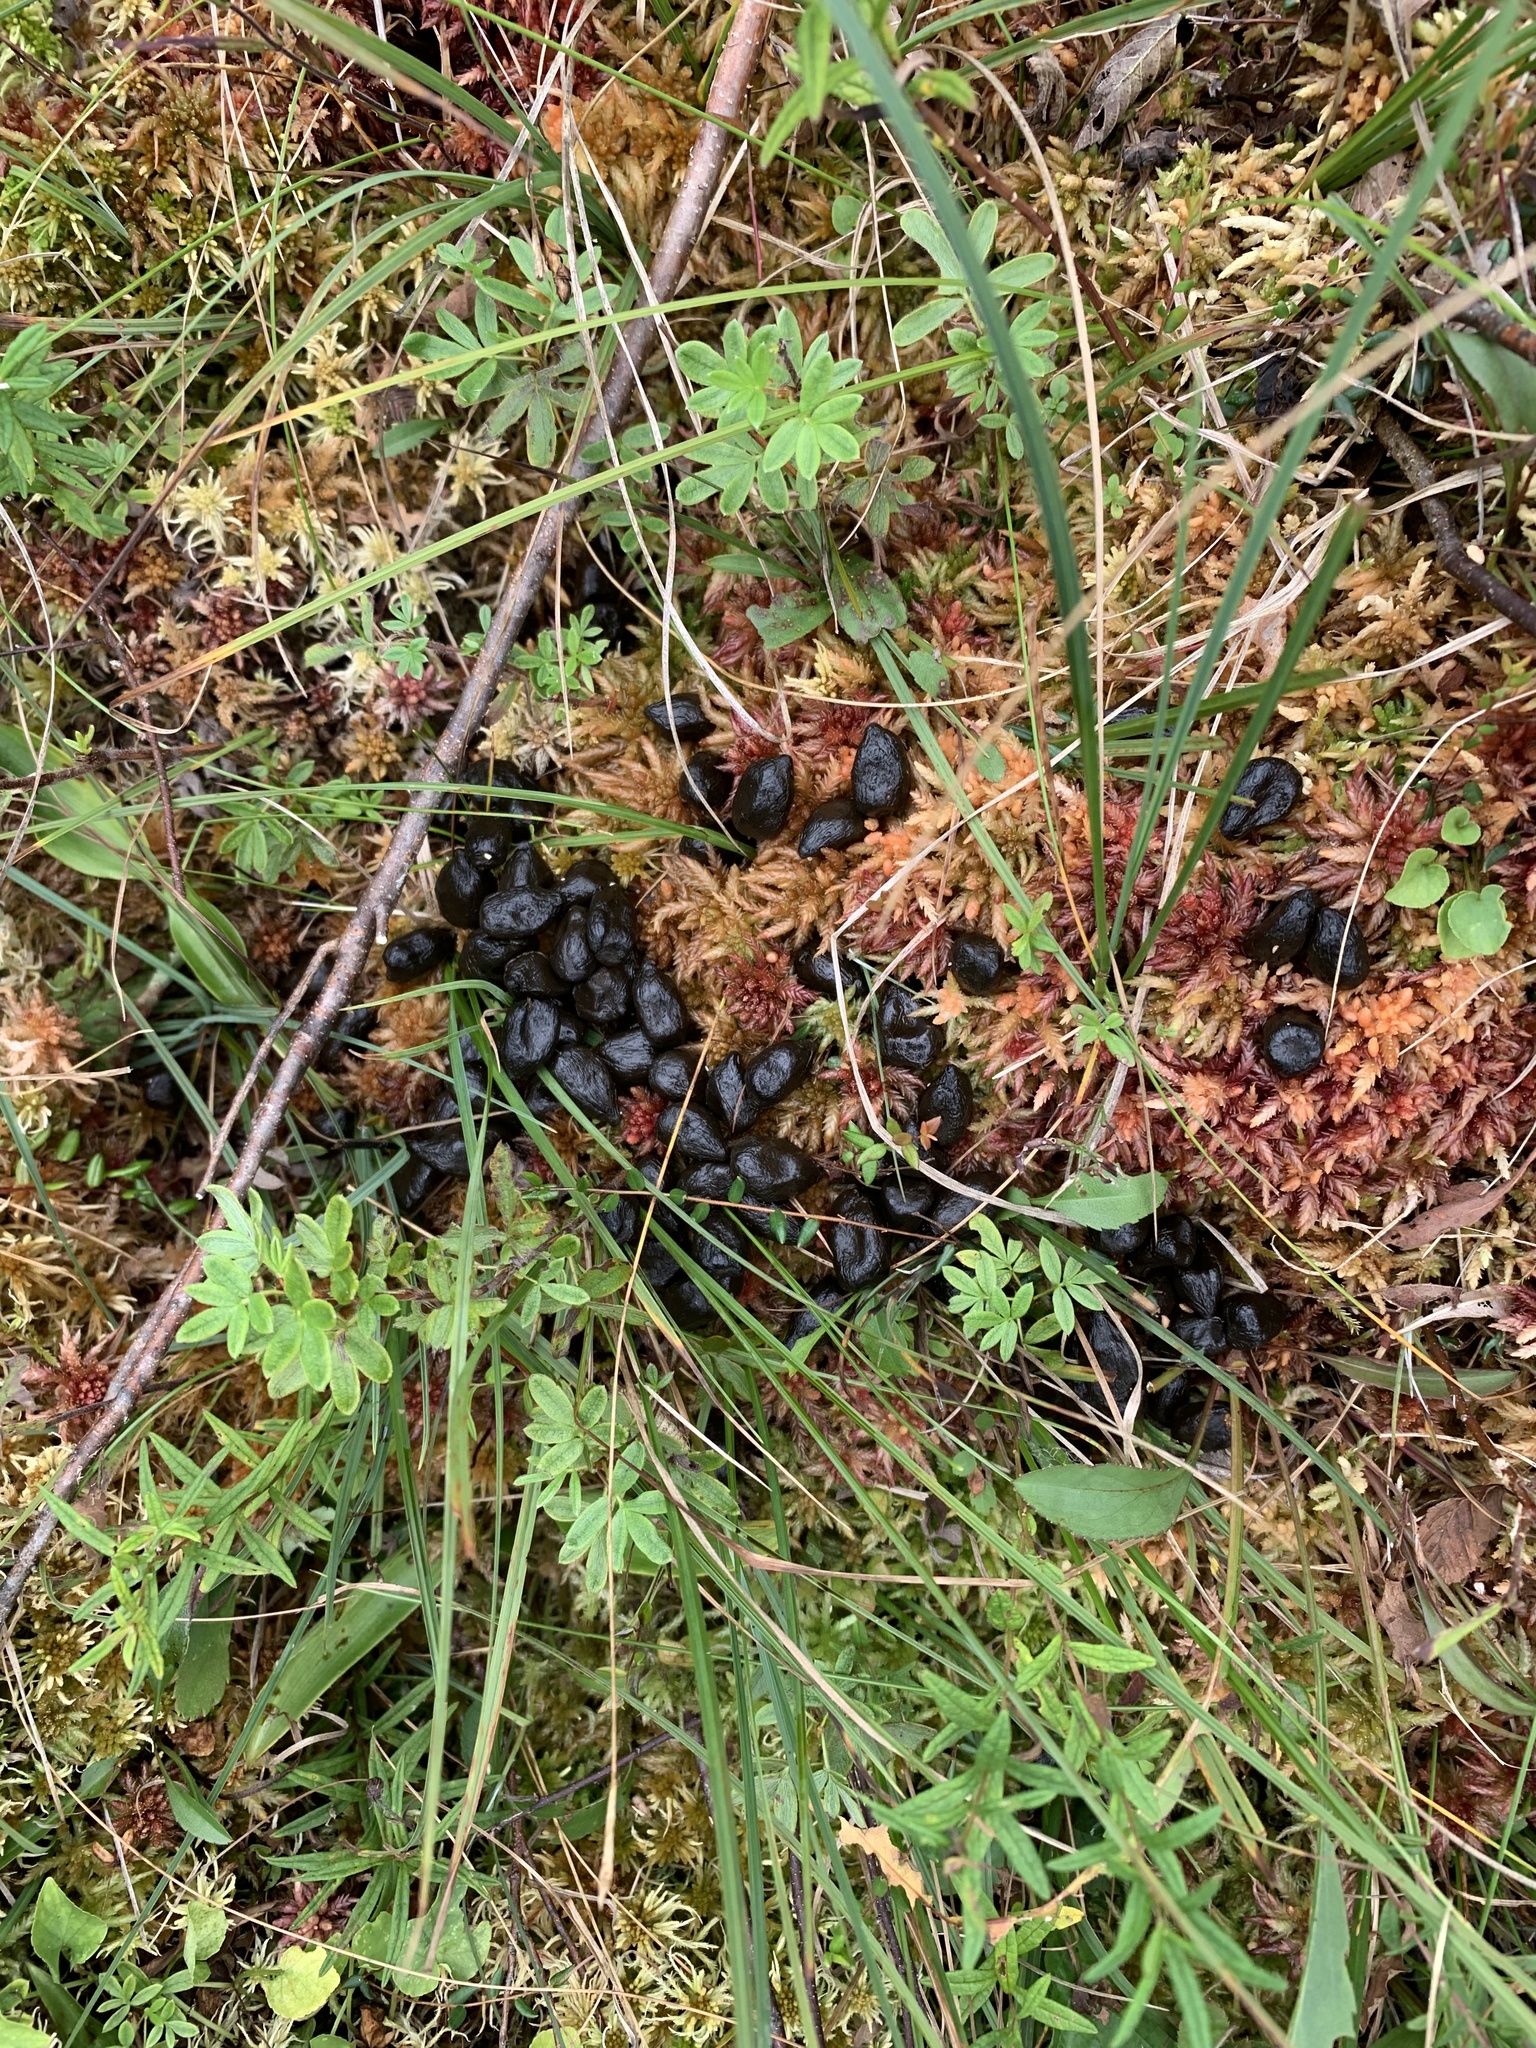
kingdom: Animalia
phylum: Chordata
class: Mammalia
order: Artiodactyla
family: Cervidae
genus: Odocoileus
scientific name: Odocoileus virginianus
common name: White-tailed deer
